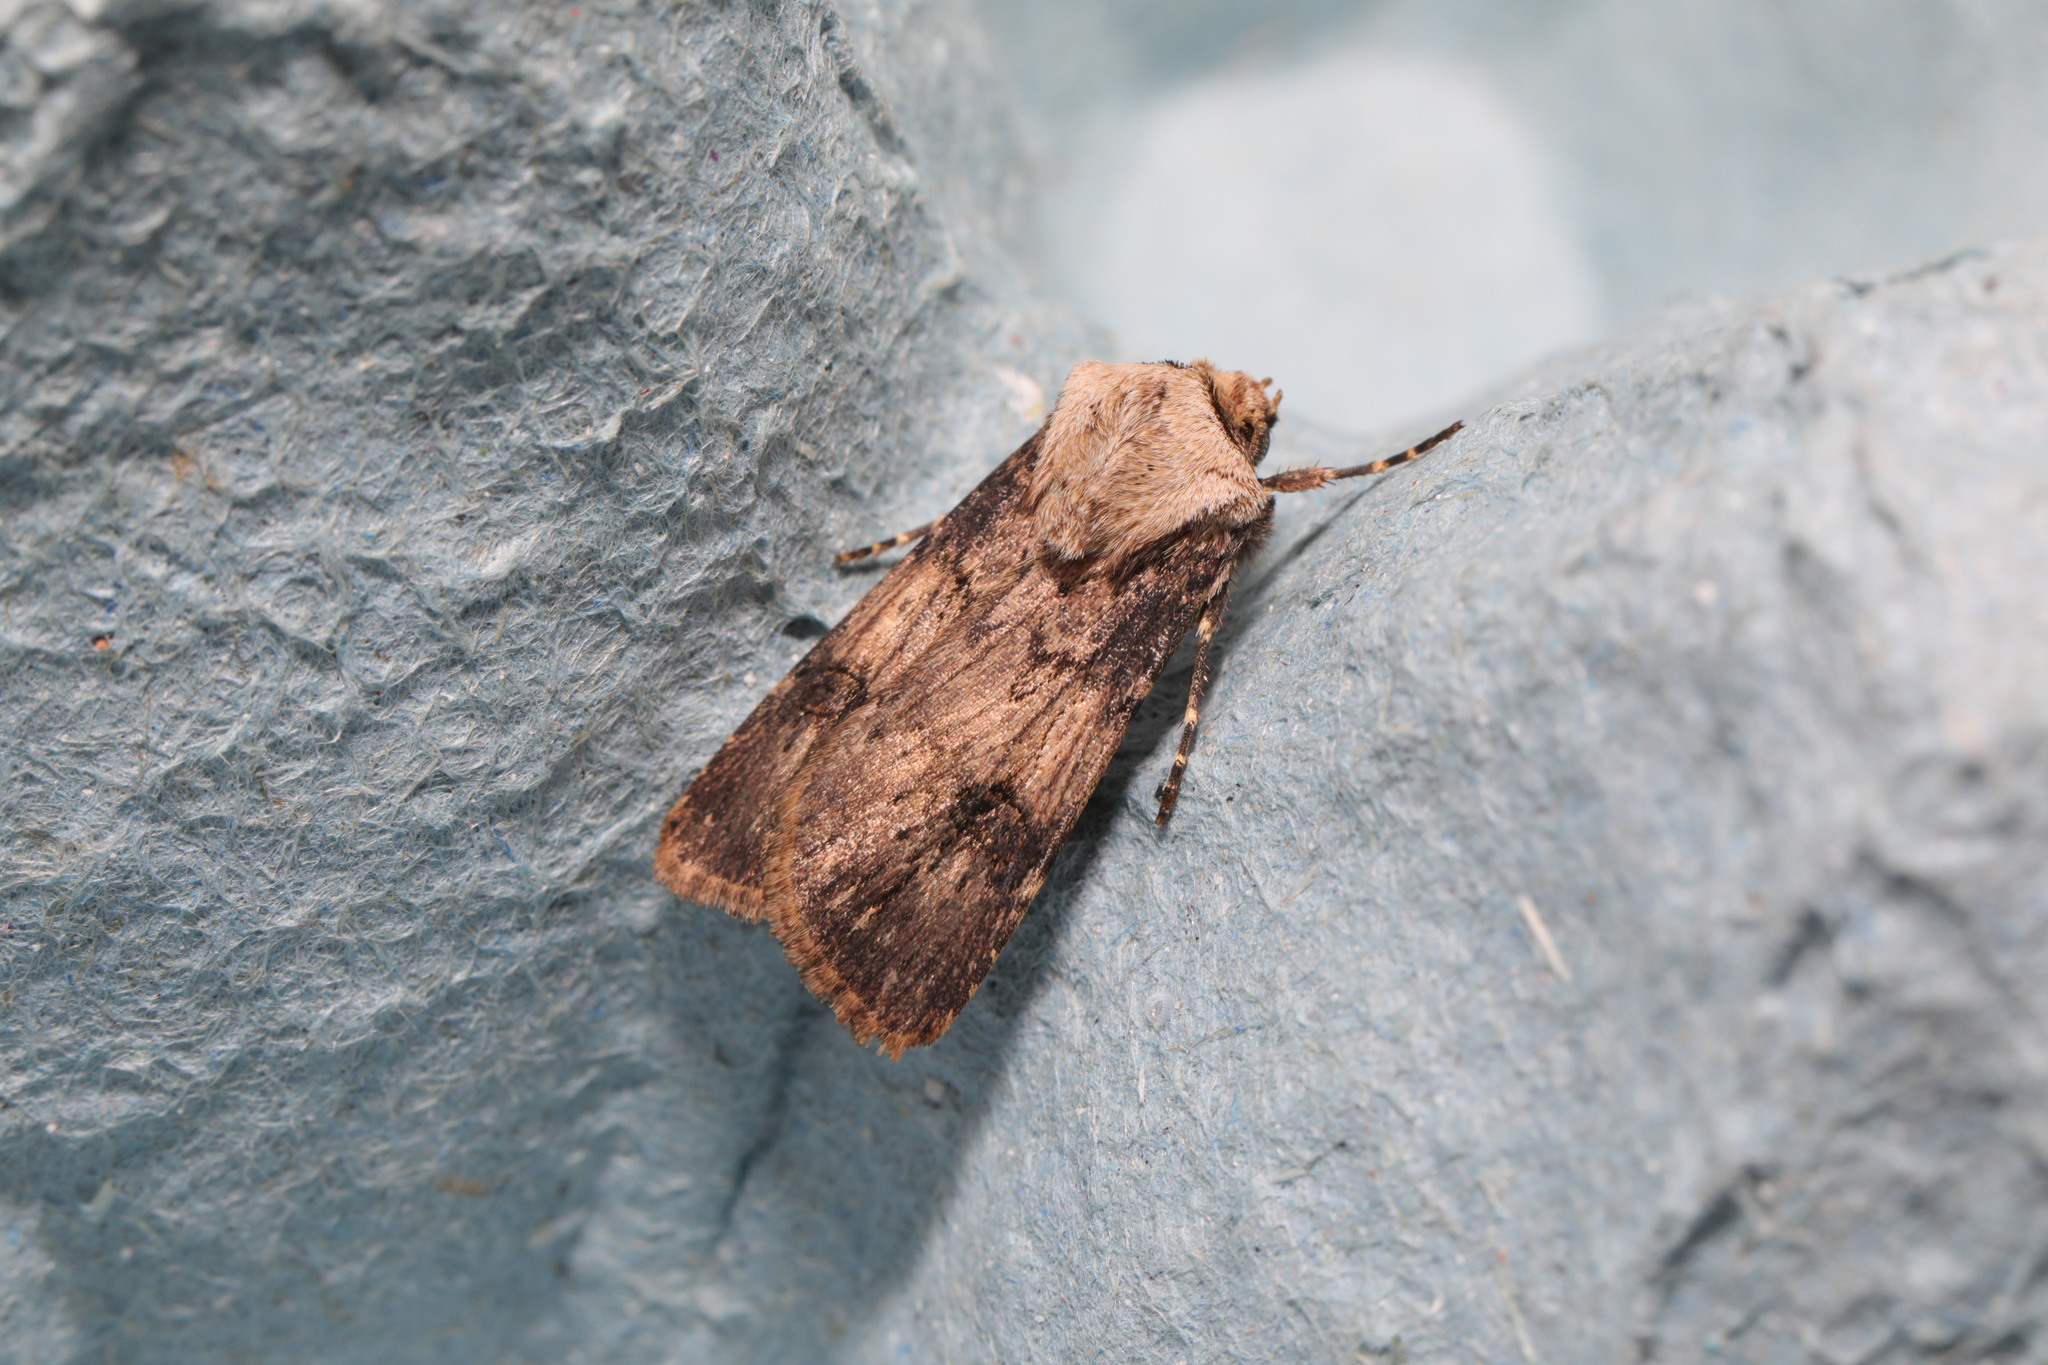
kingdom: Animalia
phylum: Arthropoda
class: Insecta
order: Lepidoptera
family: Noctuidae
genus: Agrotis
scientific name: Agrotis puta
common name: Shuttle-shaped dart
